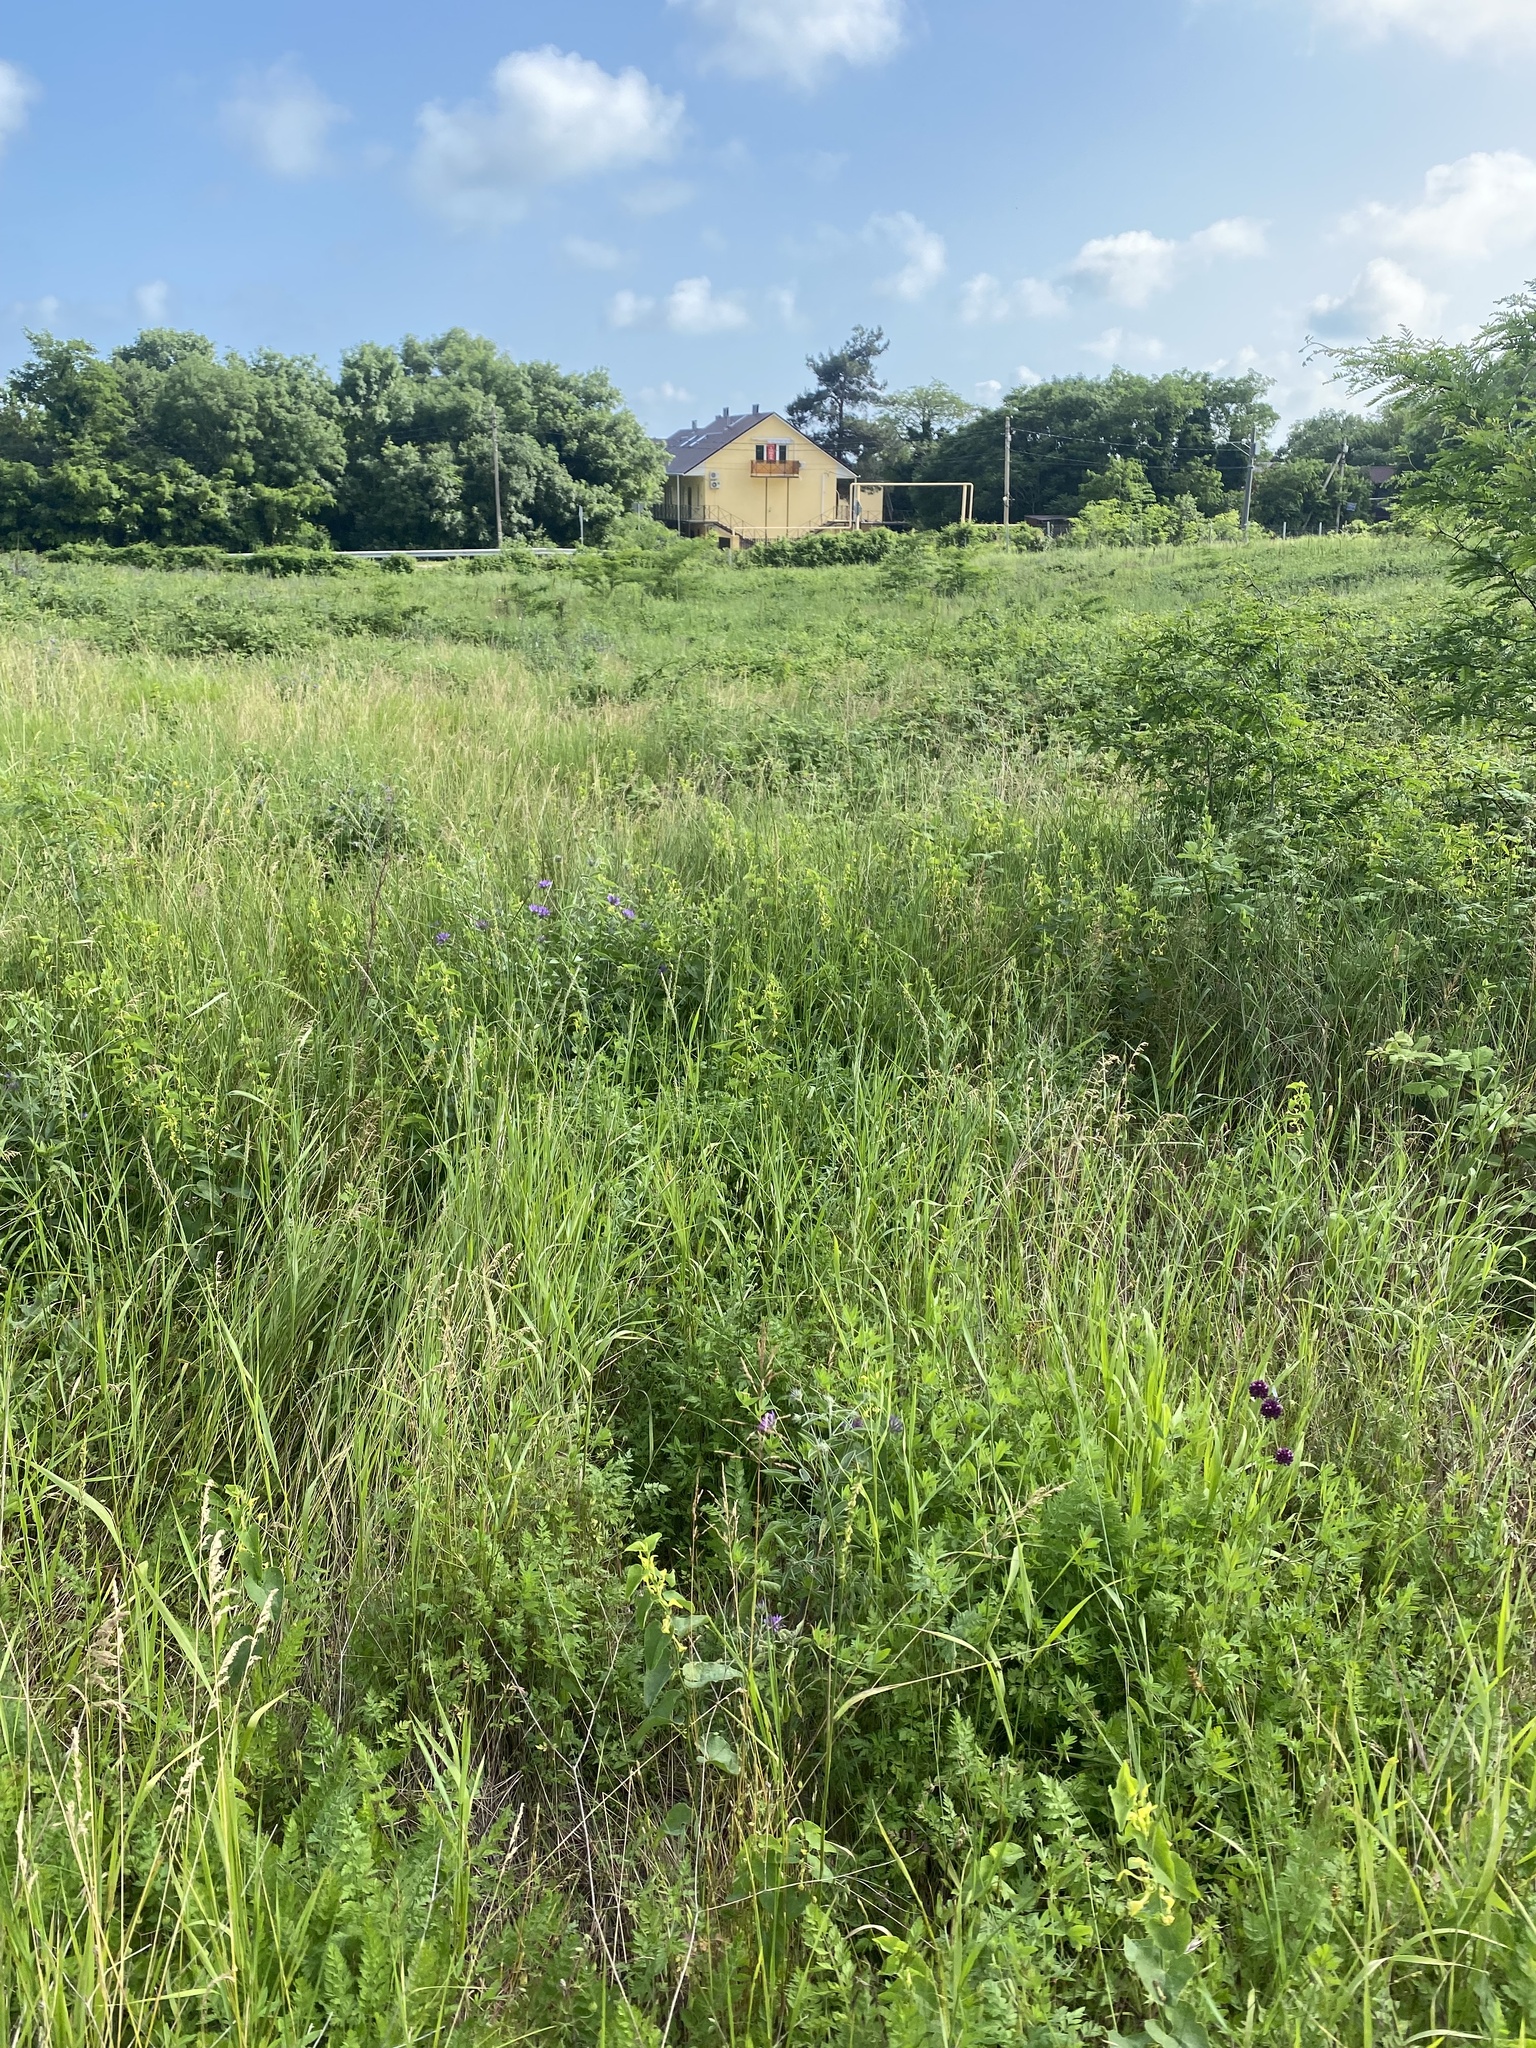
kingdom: Plantae
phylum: Tracheophyta
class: Magnoliopsida
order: Piperales
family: Aristolochiaceae
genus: Aristolochia
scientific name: Aristolochia clematitis
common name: Birthwort
